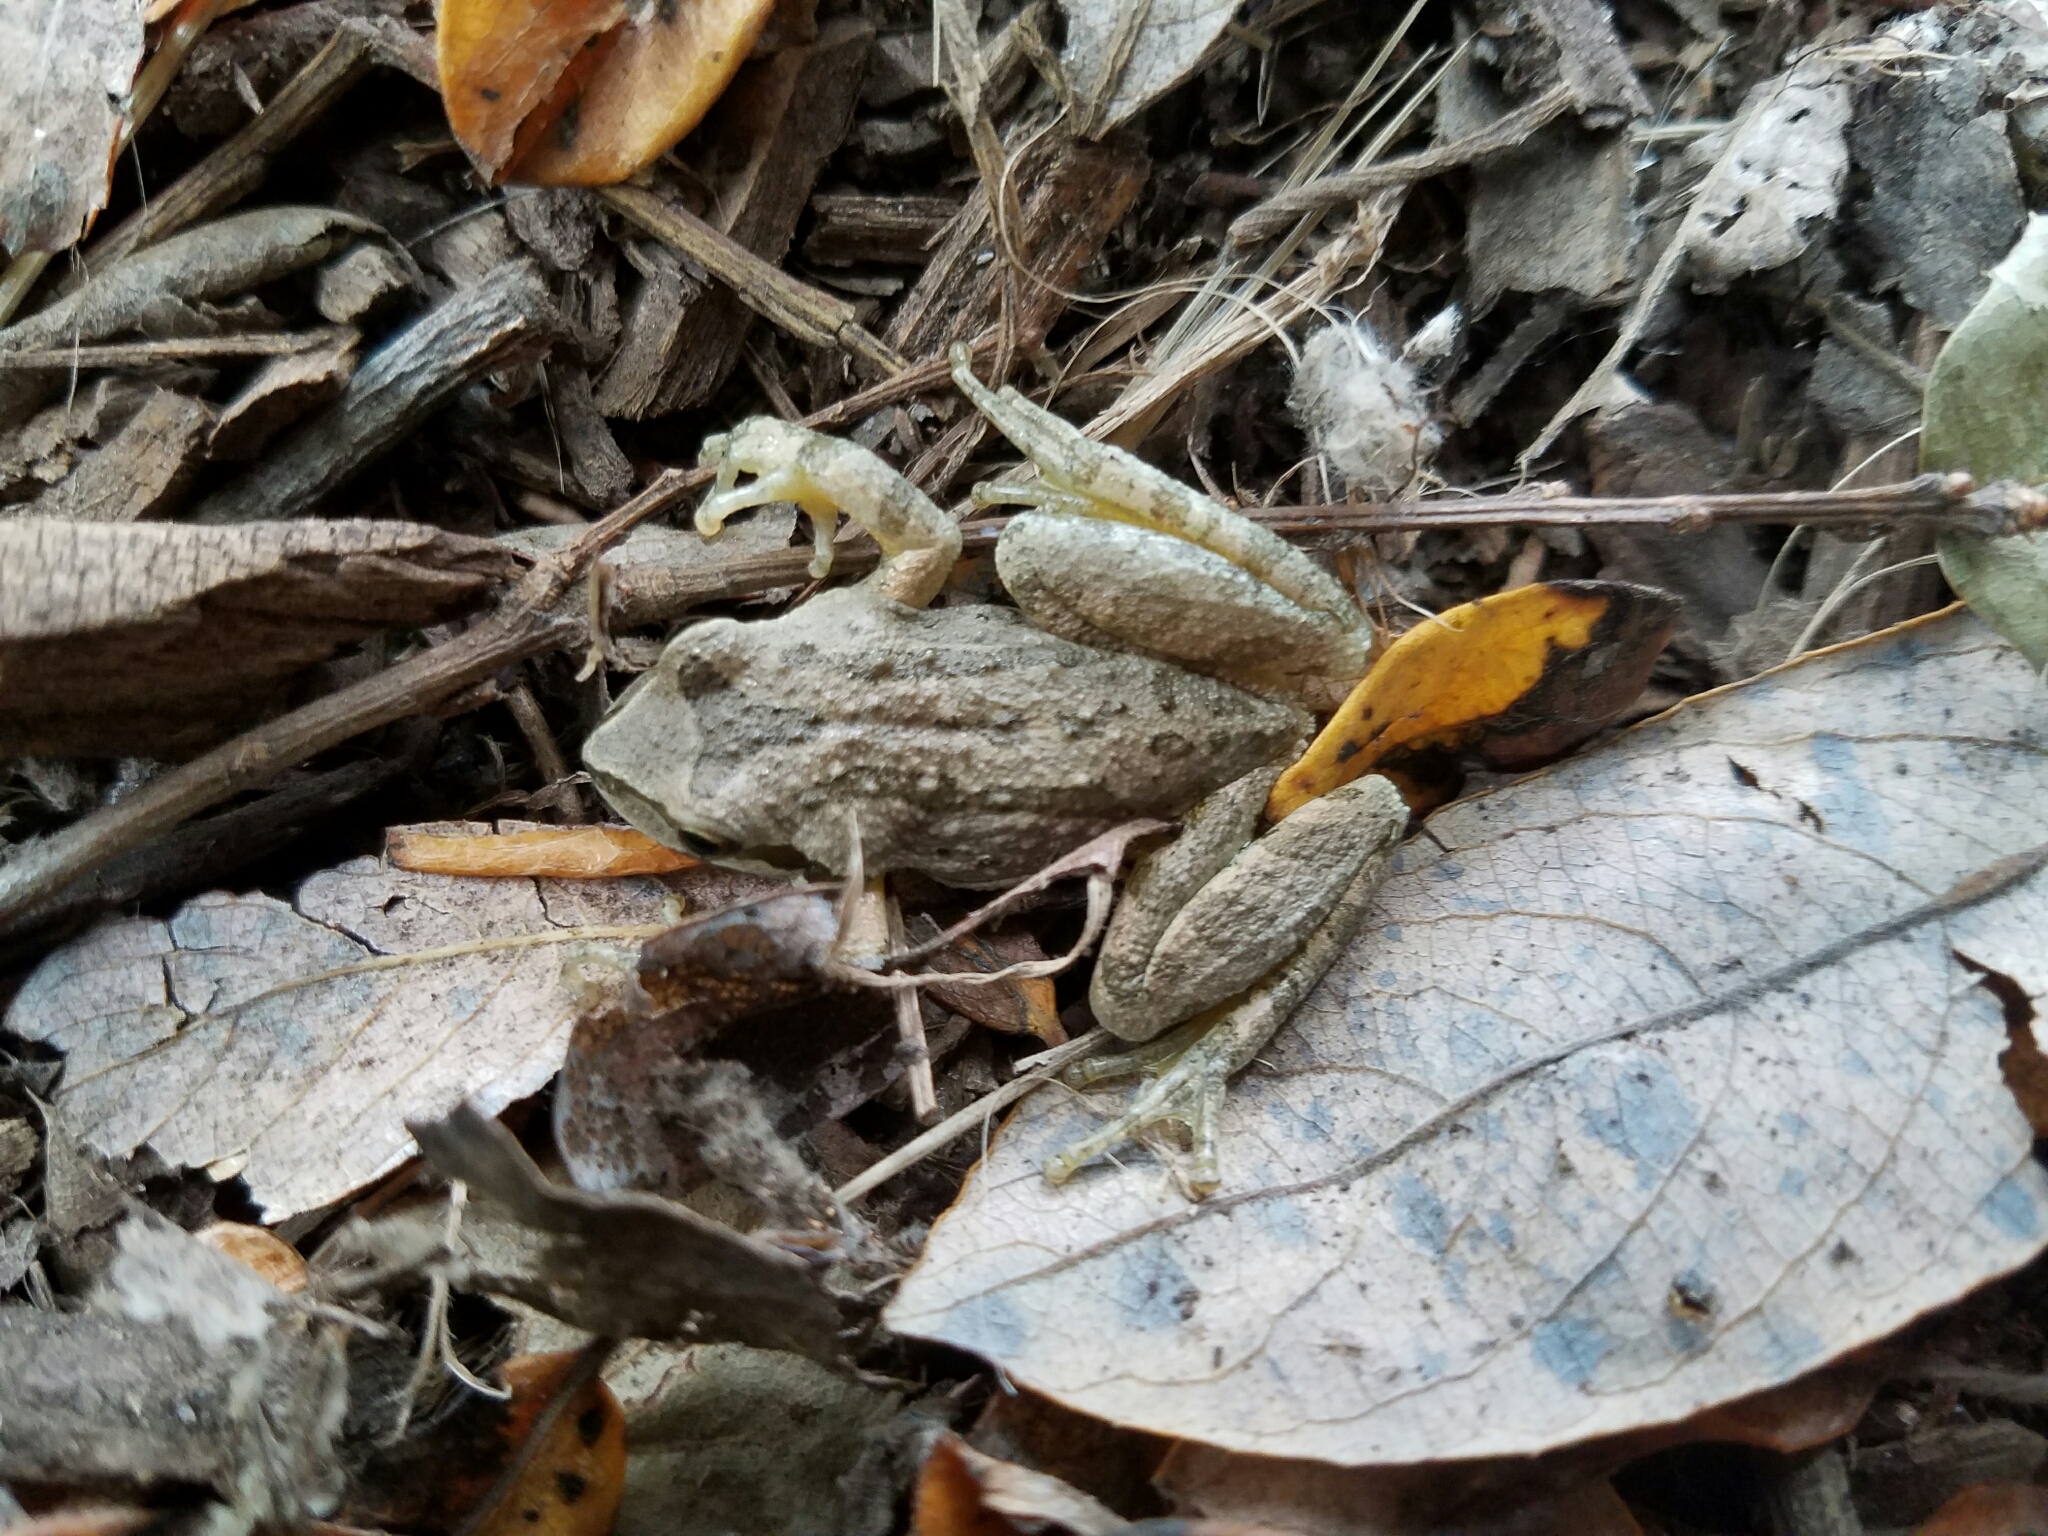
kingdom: Animalia
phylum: Chordata
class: Amphibia
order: Anura
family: Hylidae
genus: Pseudacris
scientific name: Pseudacris regilla
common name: Pacific chorus frog
